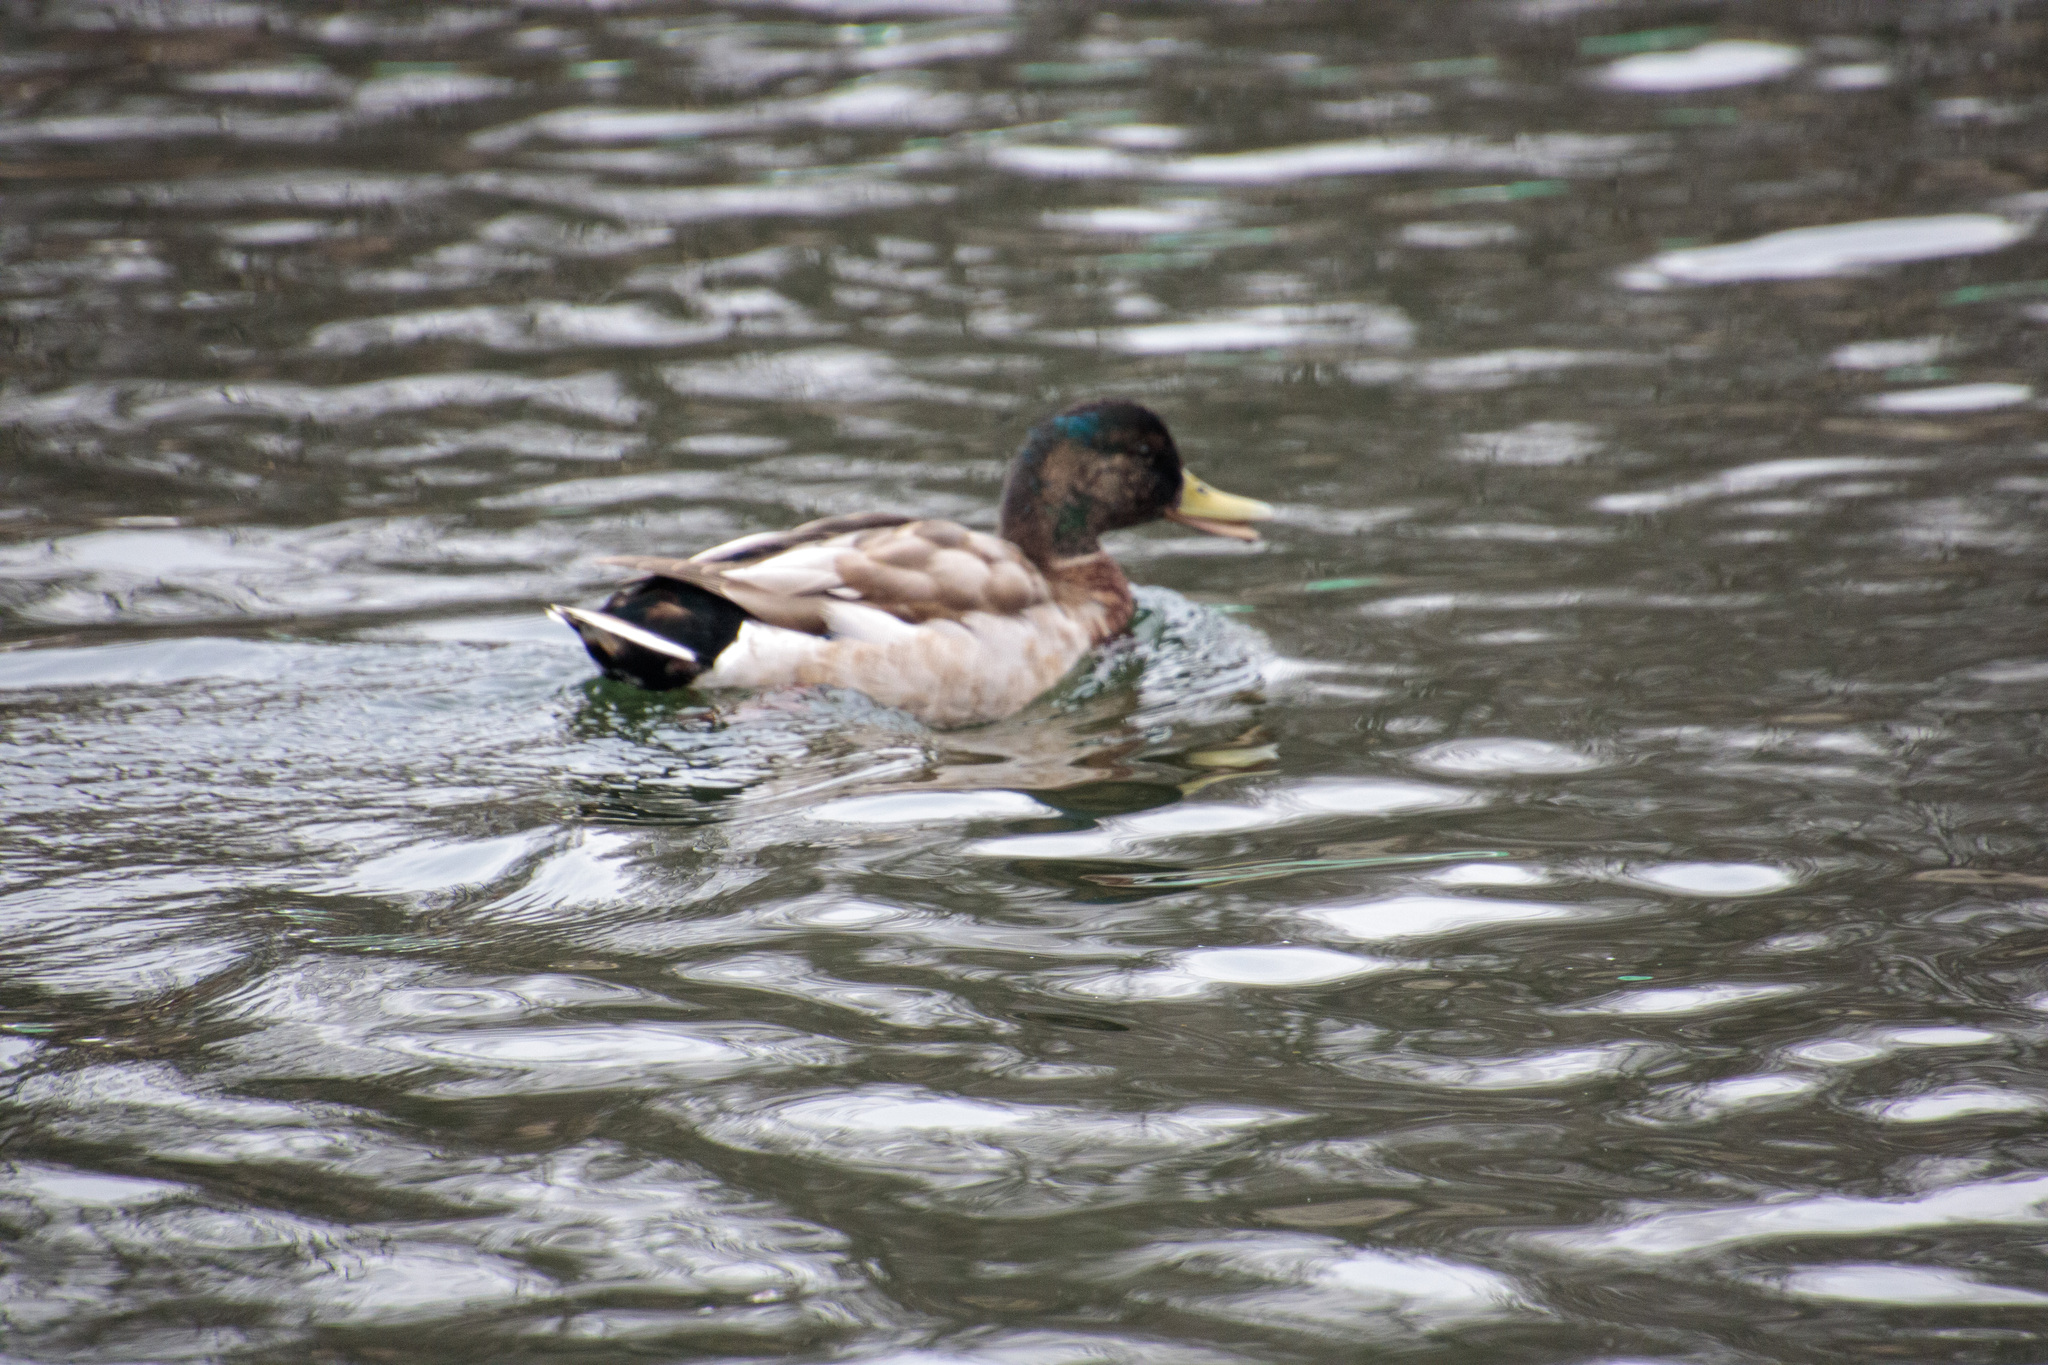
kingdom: Animalia
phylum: Chordata
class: Aves
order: Anseriformes
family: Anatidae
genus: Anas
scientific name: Anas platyrhynchos
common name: Mallard
